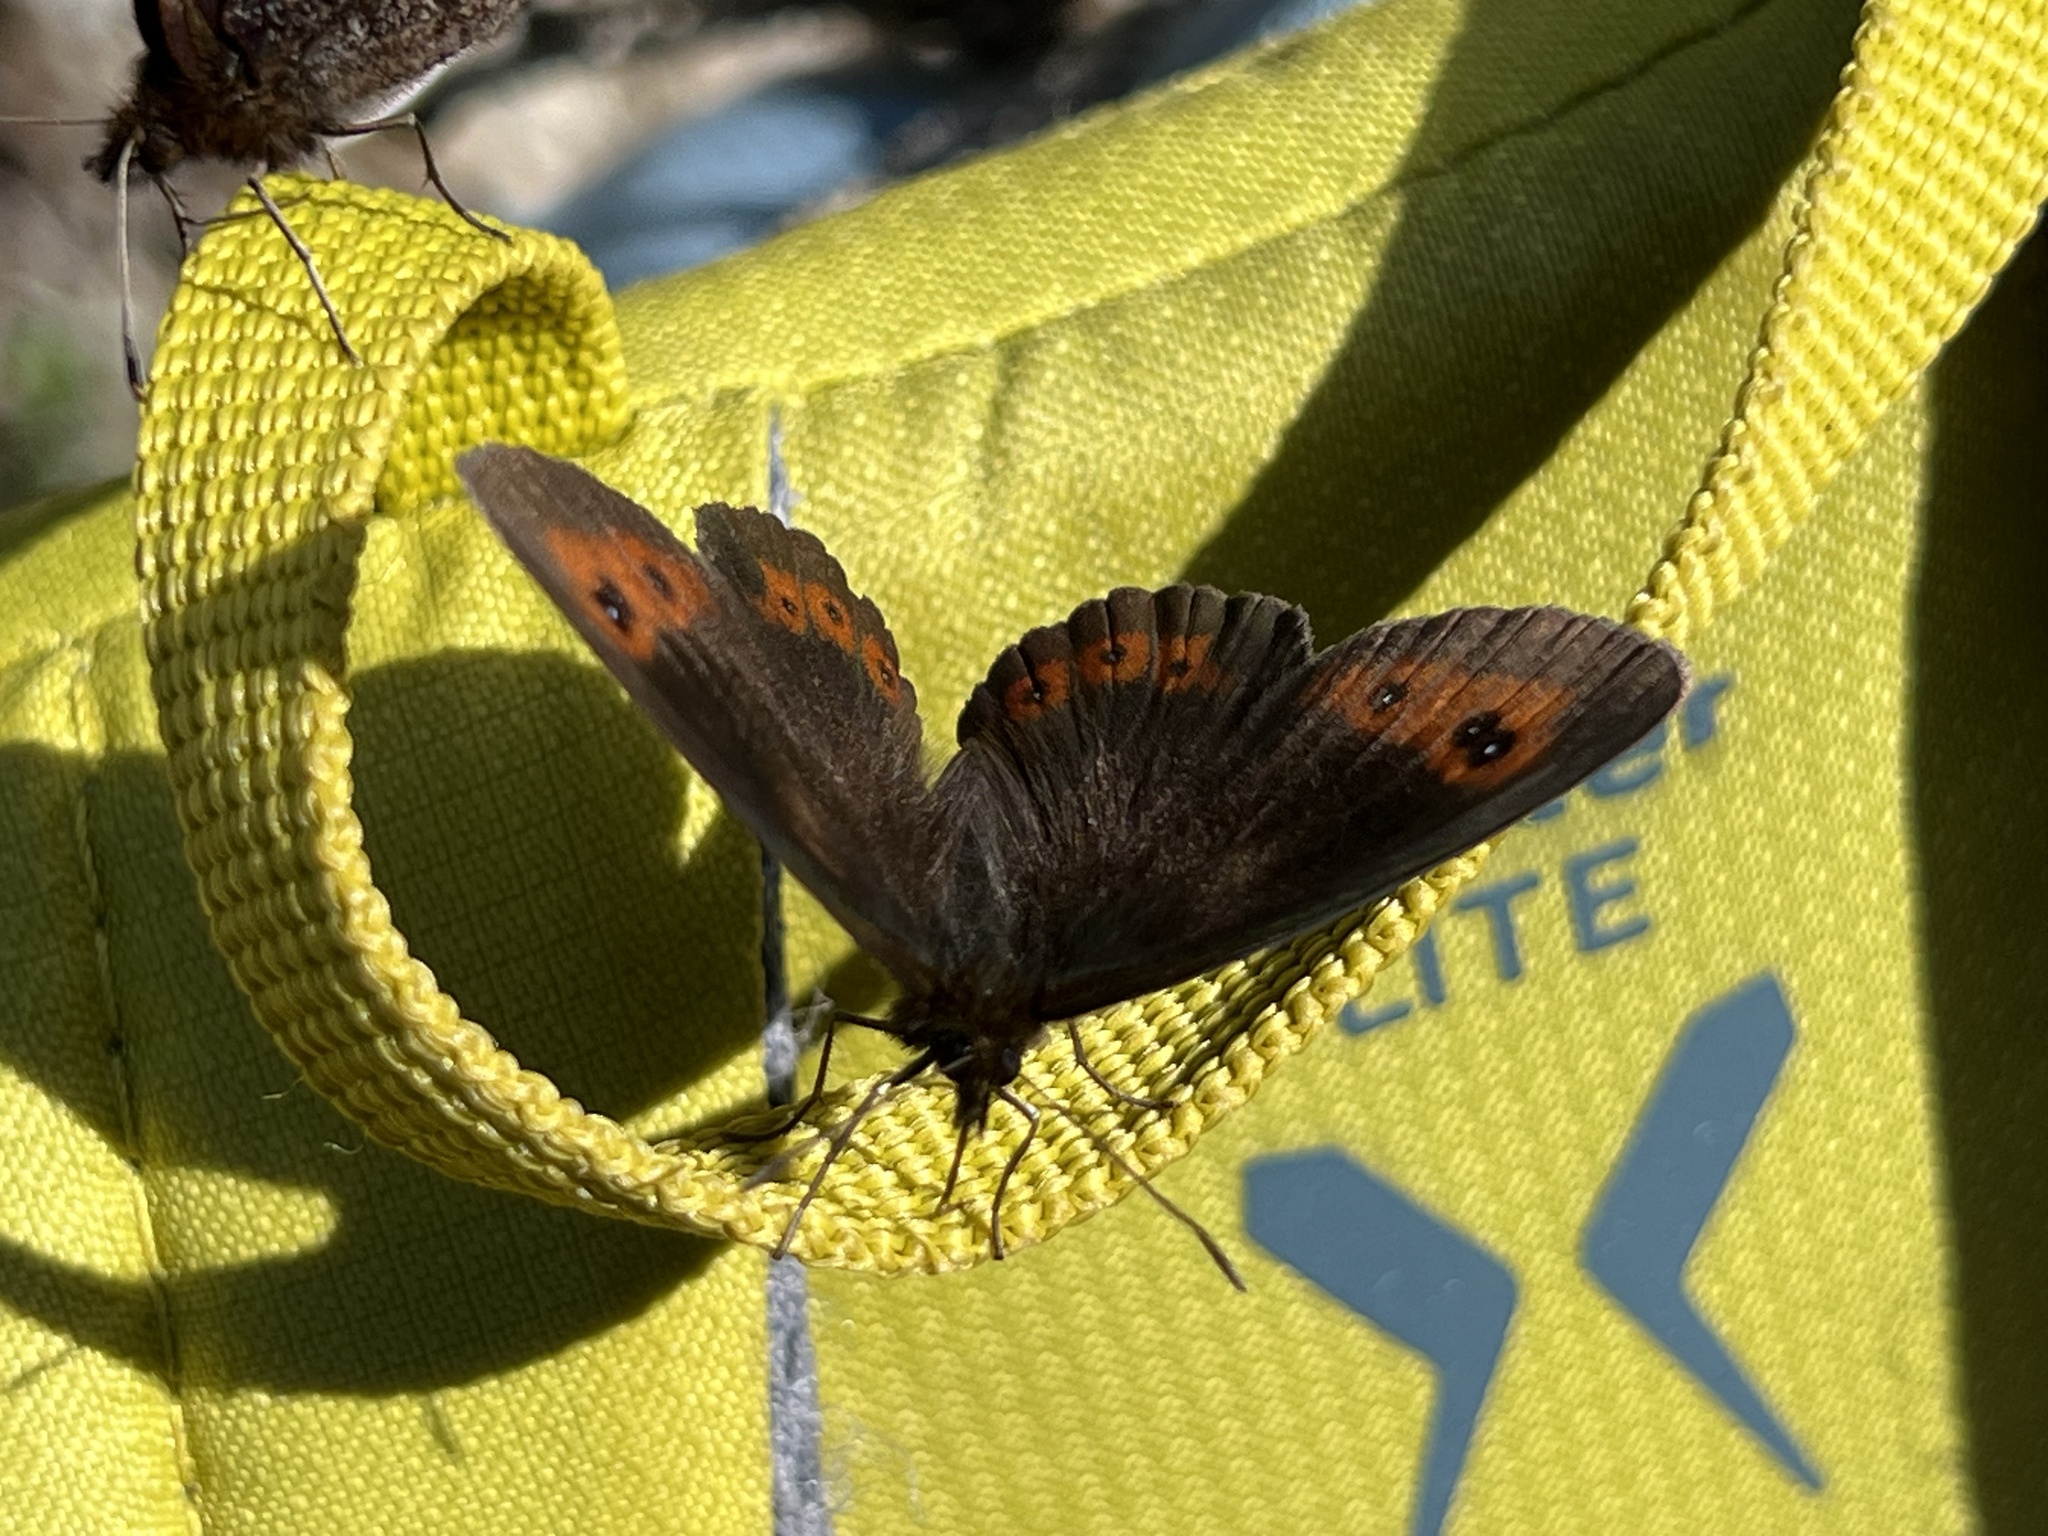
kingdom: Animalia
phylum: Arthropoda
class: Insecta
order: Lepidoptera
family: Nymphalidae
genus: Erebia
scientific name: Erebia aethiops
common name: Scotch argus
